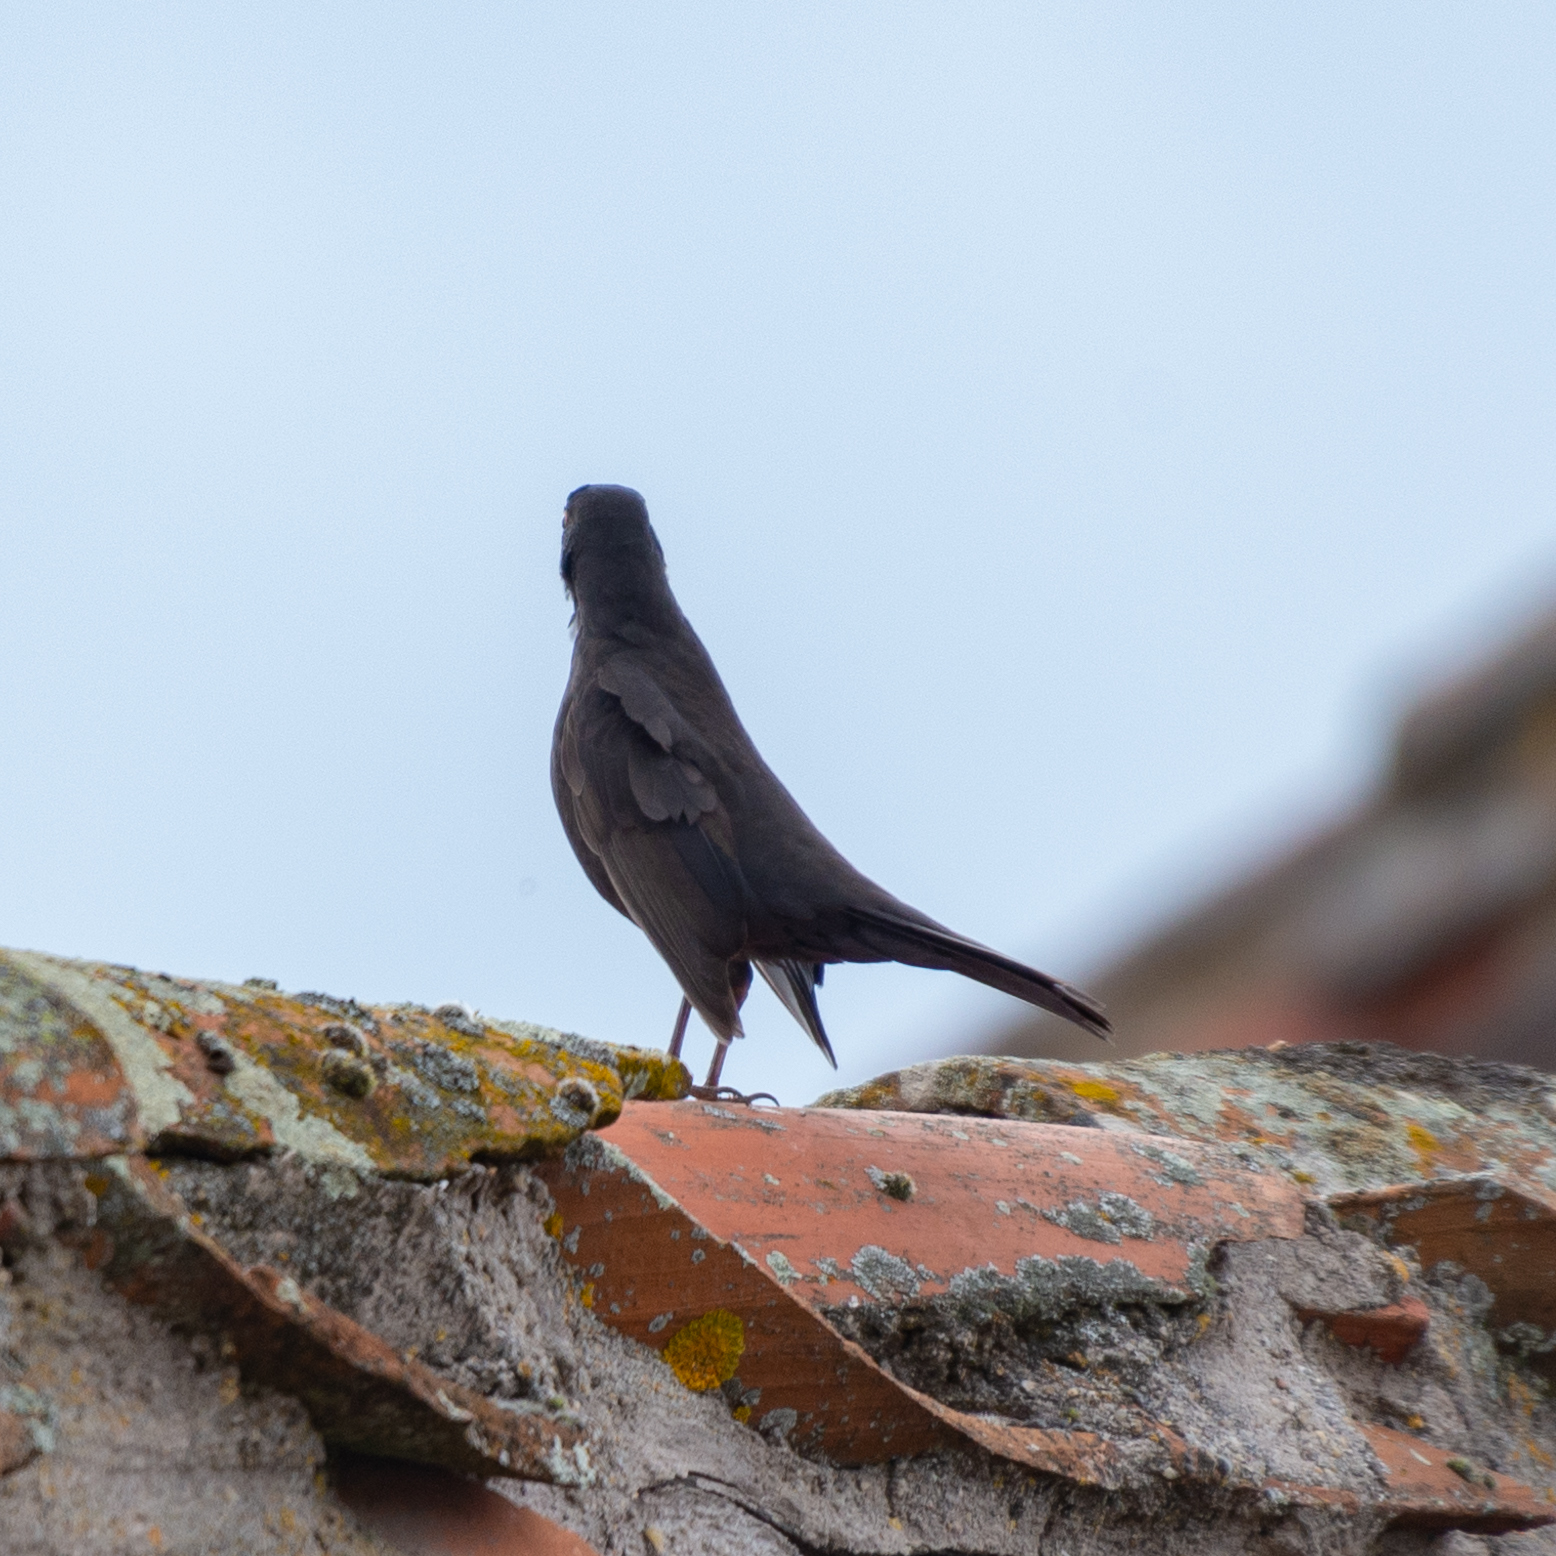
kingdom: Animalia
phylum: Chordata
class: Aves
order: Passeriformes
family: Turdidae
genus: Turdus
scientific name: Turdus merula
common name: Common blackbird
